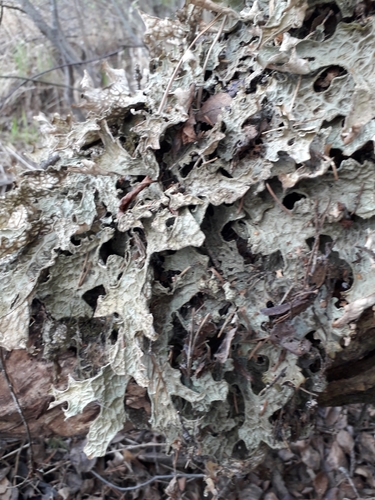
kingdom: Fungi
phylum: Ascomycota
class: Lecanoromycetes
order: Peltigerales
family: Lobariaceae
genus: Lobaria
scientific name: Lobaria pulmonaria
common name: Lungwort
